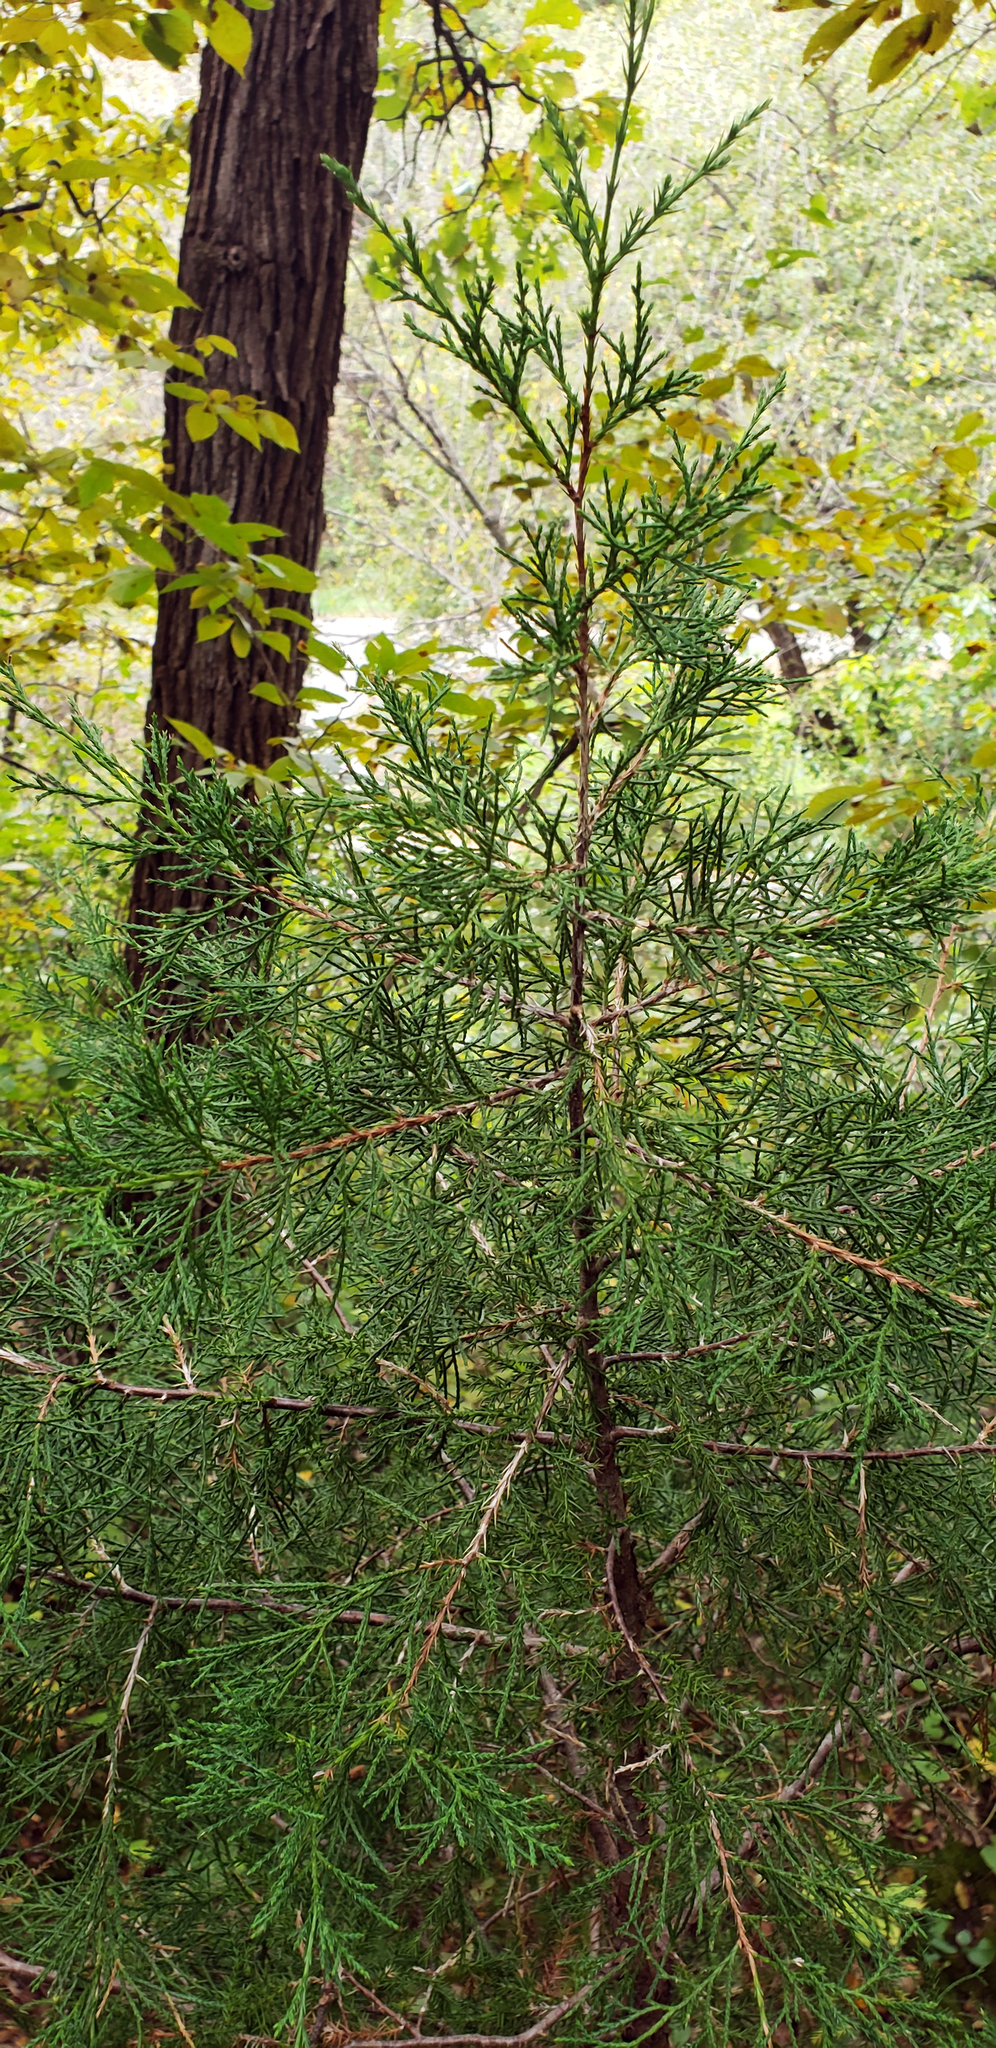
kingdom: Plantae
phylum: Tracheophyta
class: Pinopsida
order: Pinales
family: Cupressaceae
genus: Juniperus
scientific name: Juniperus virginiana
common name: Red juniper
